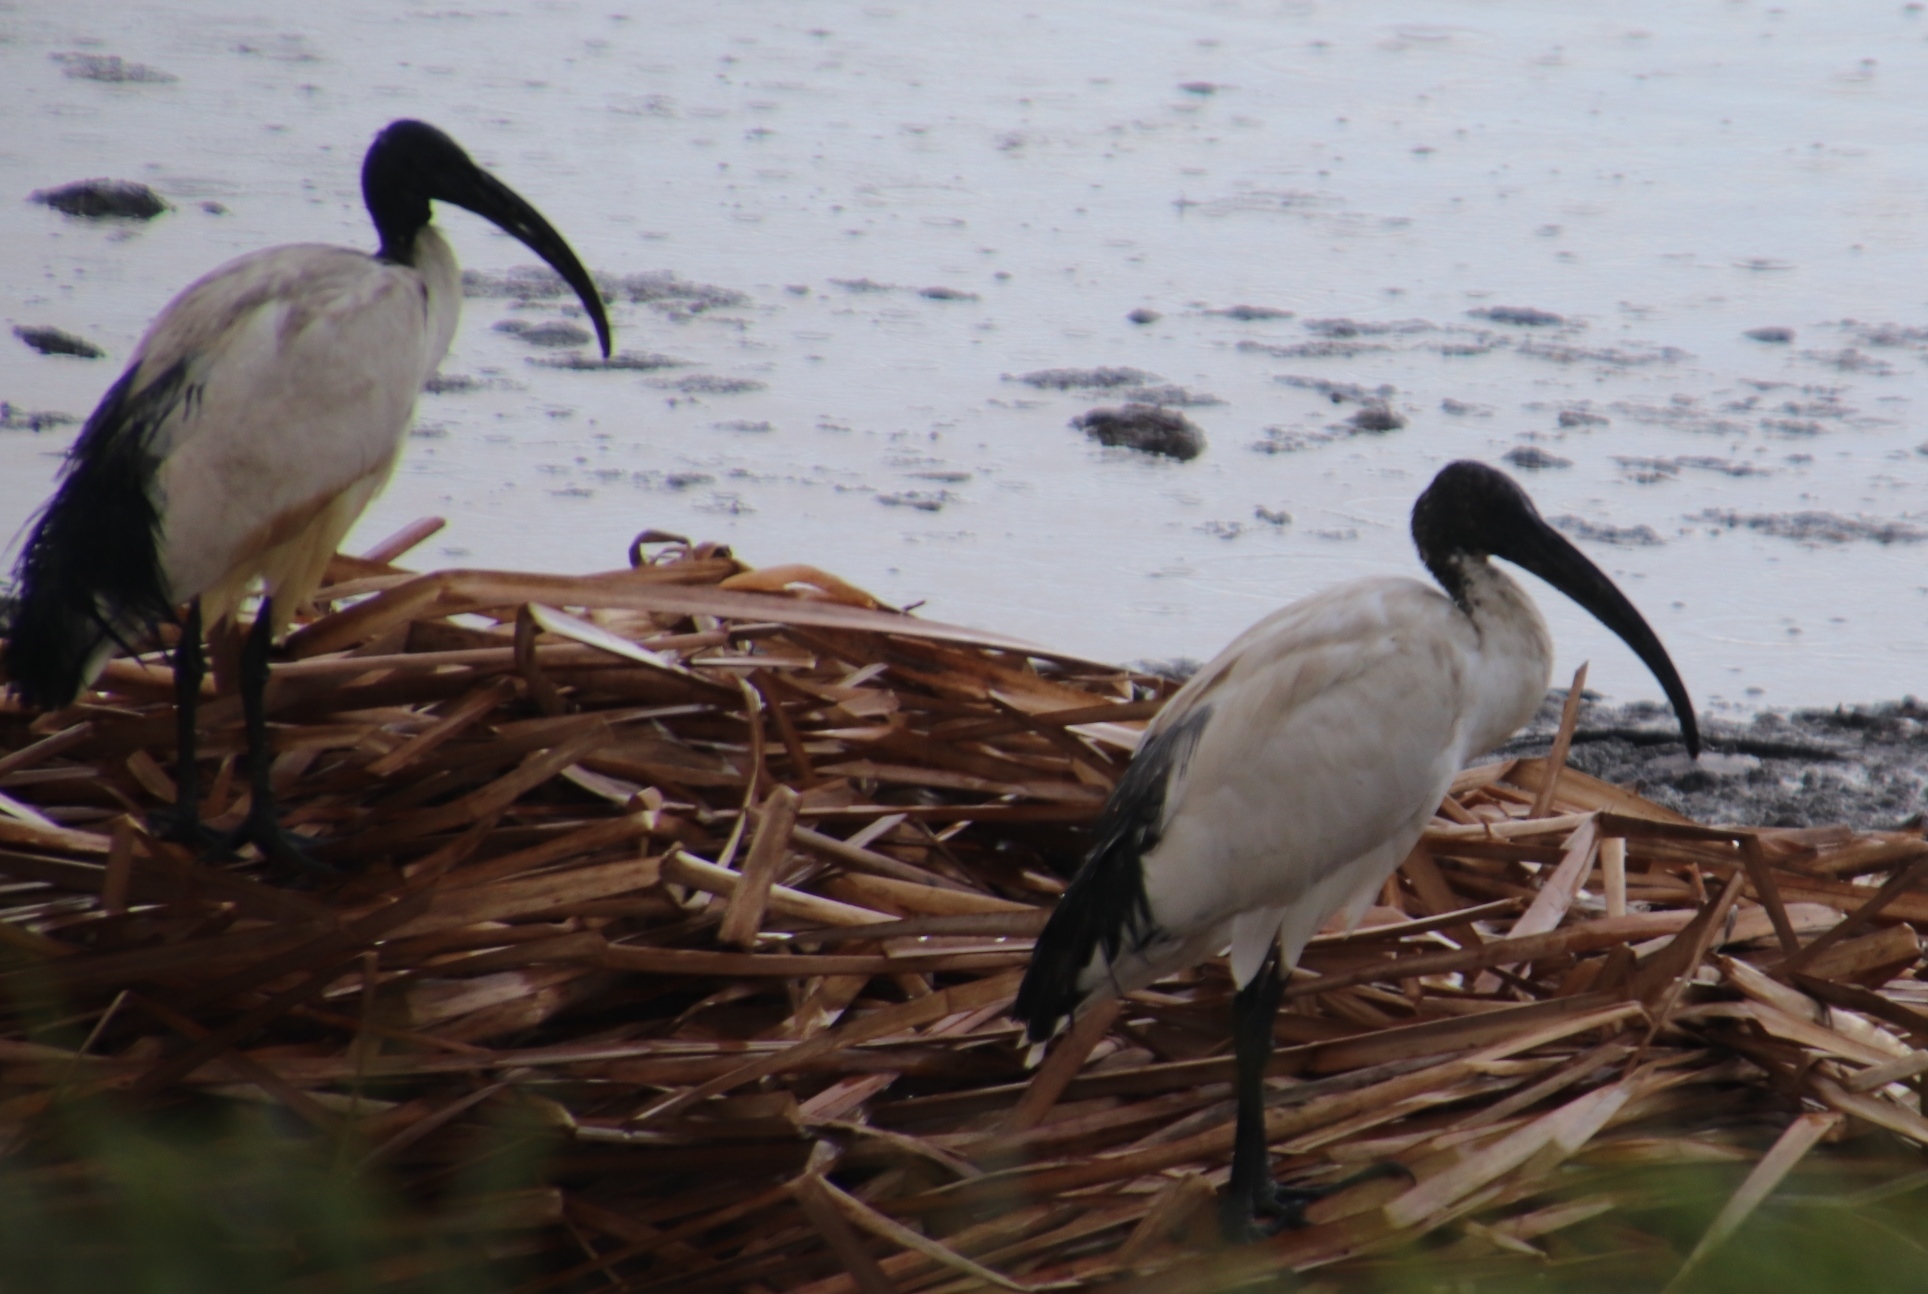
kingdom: Animalia
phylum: Chordata
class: Aves
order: Pelecaniformes
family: Threskiornithidae
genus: Threskiornis
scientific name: Threskiornis aethiopicus
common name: Sacred ibis
